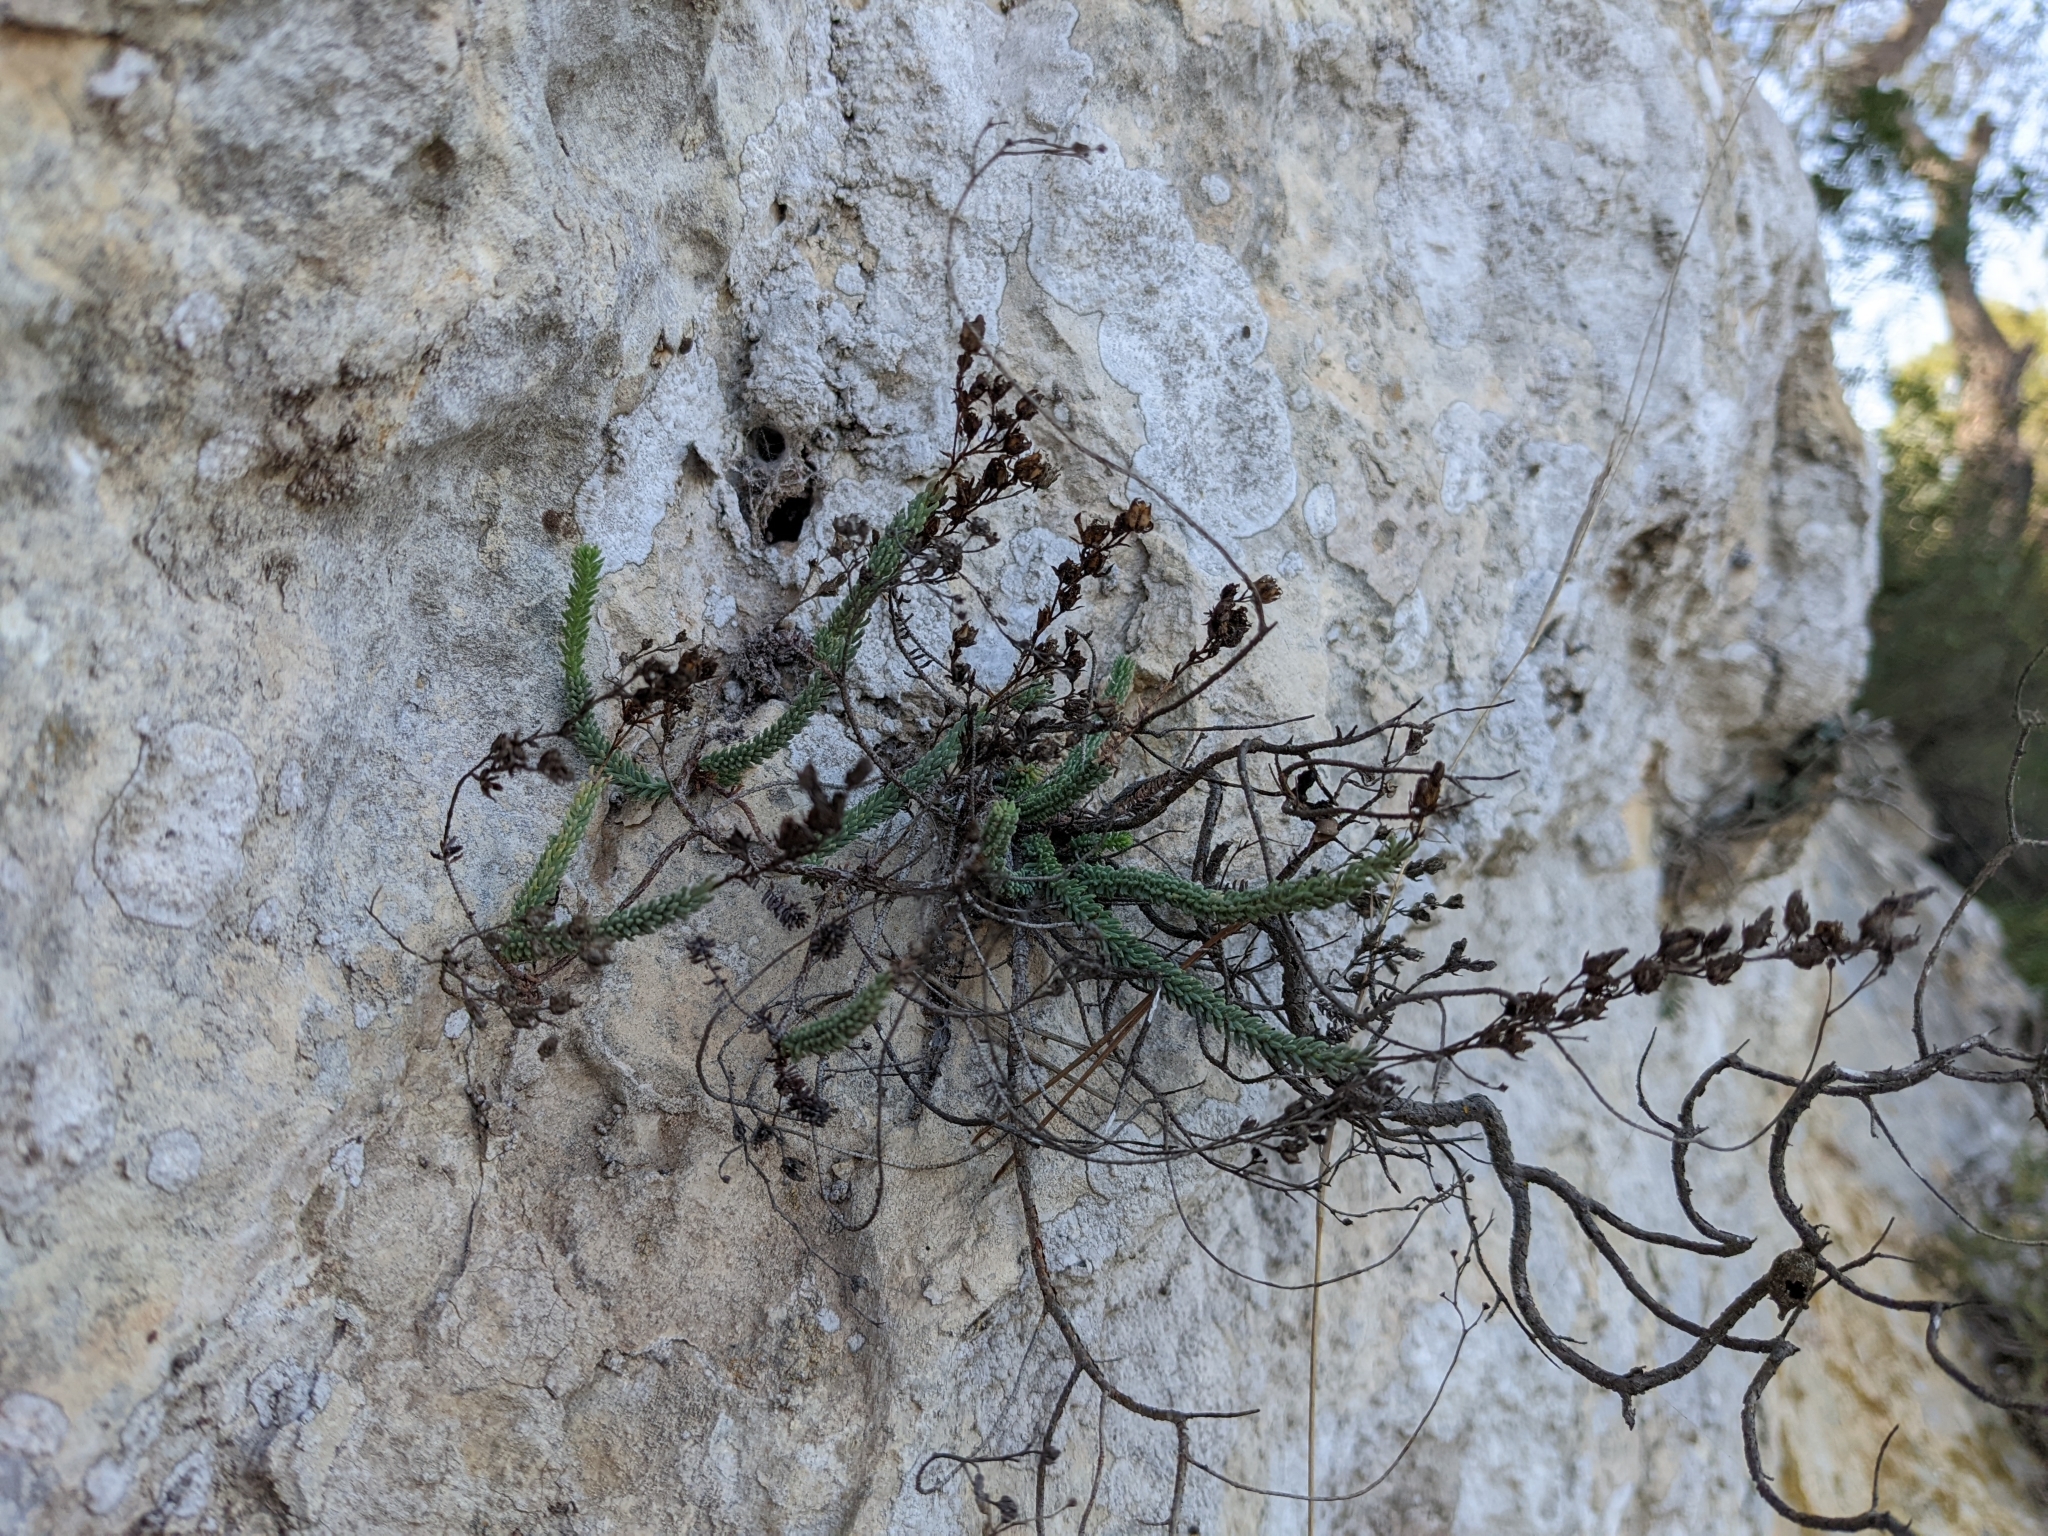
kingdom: Plantae
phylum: Tracheophyta
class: Magnoliopsida
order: Malpighiales
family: Hypericaceae
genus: Hypericum
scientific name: Hypericum ericoides
